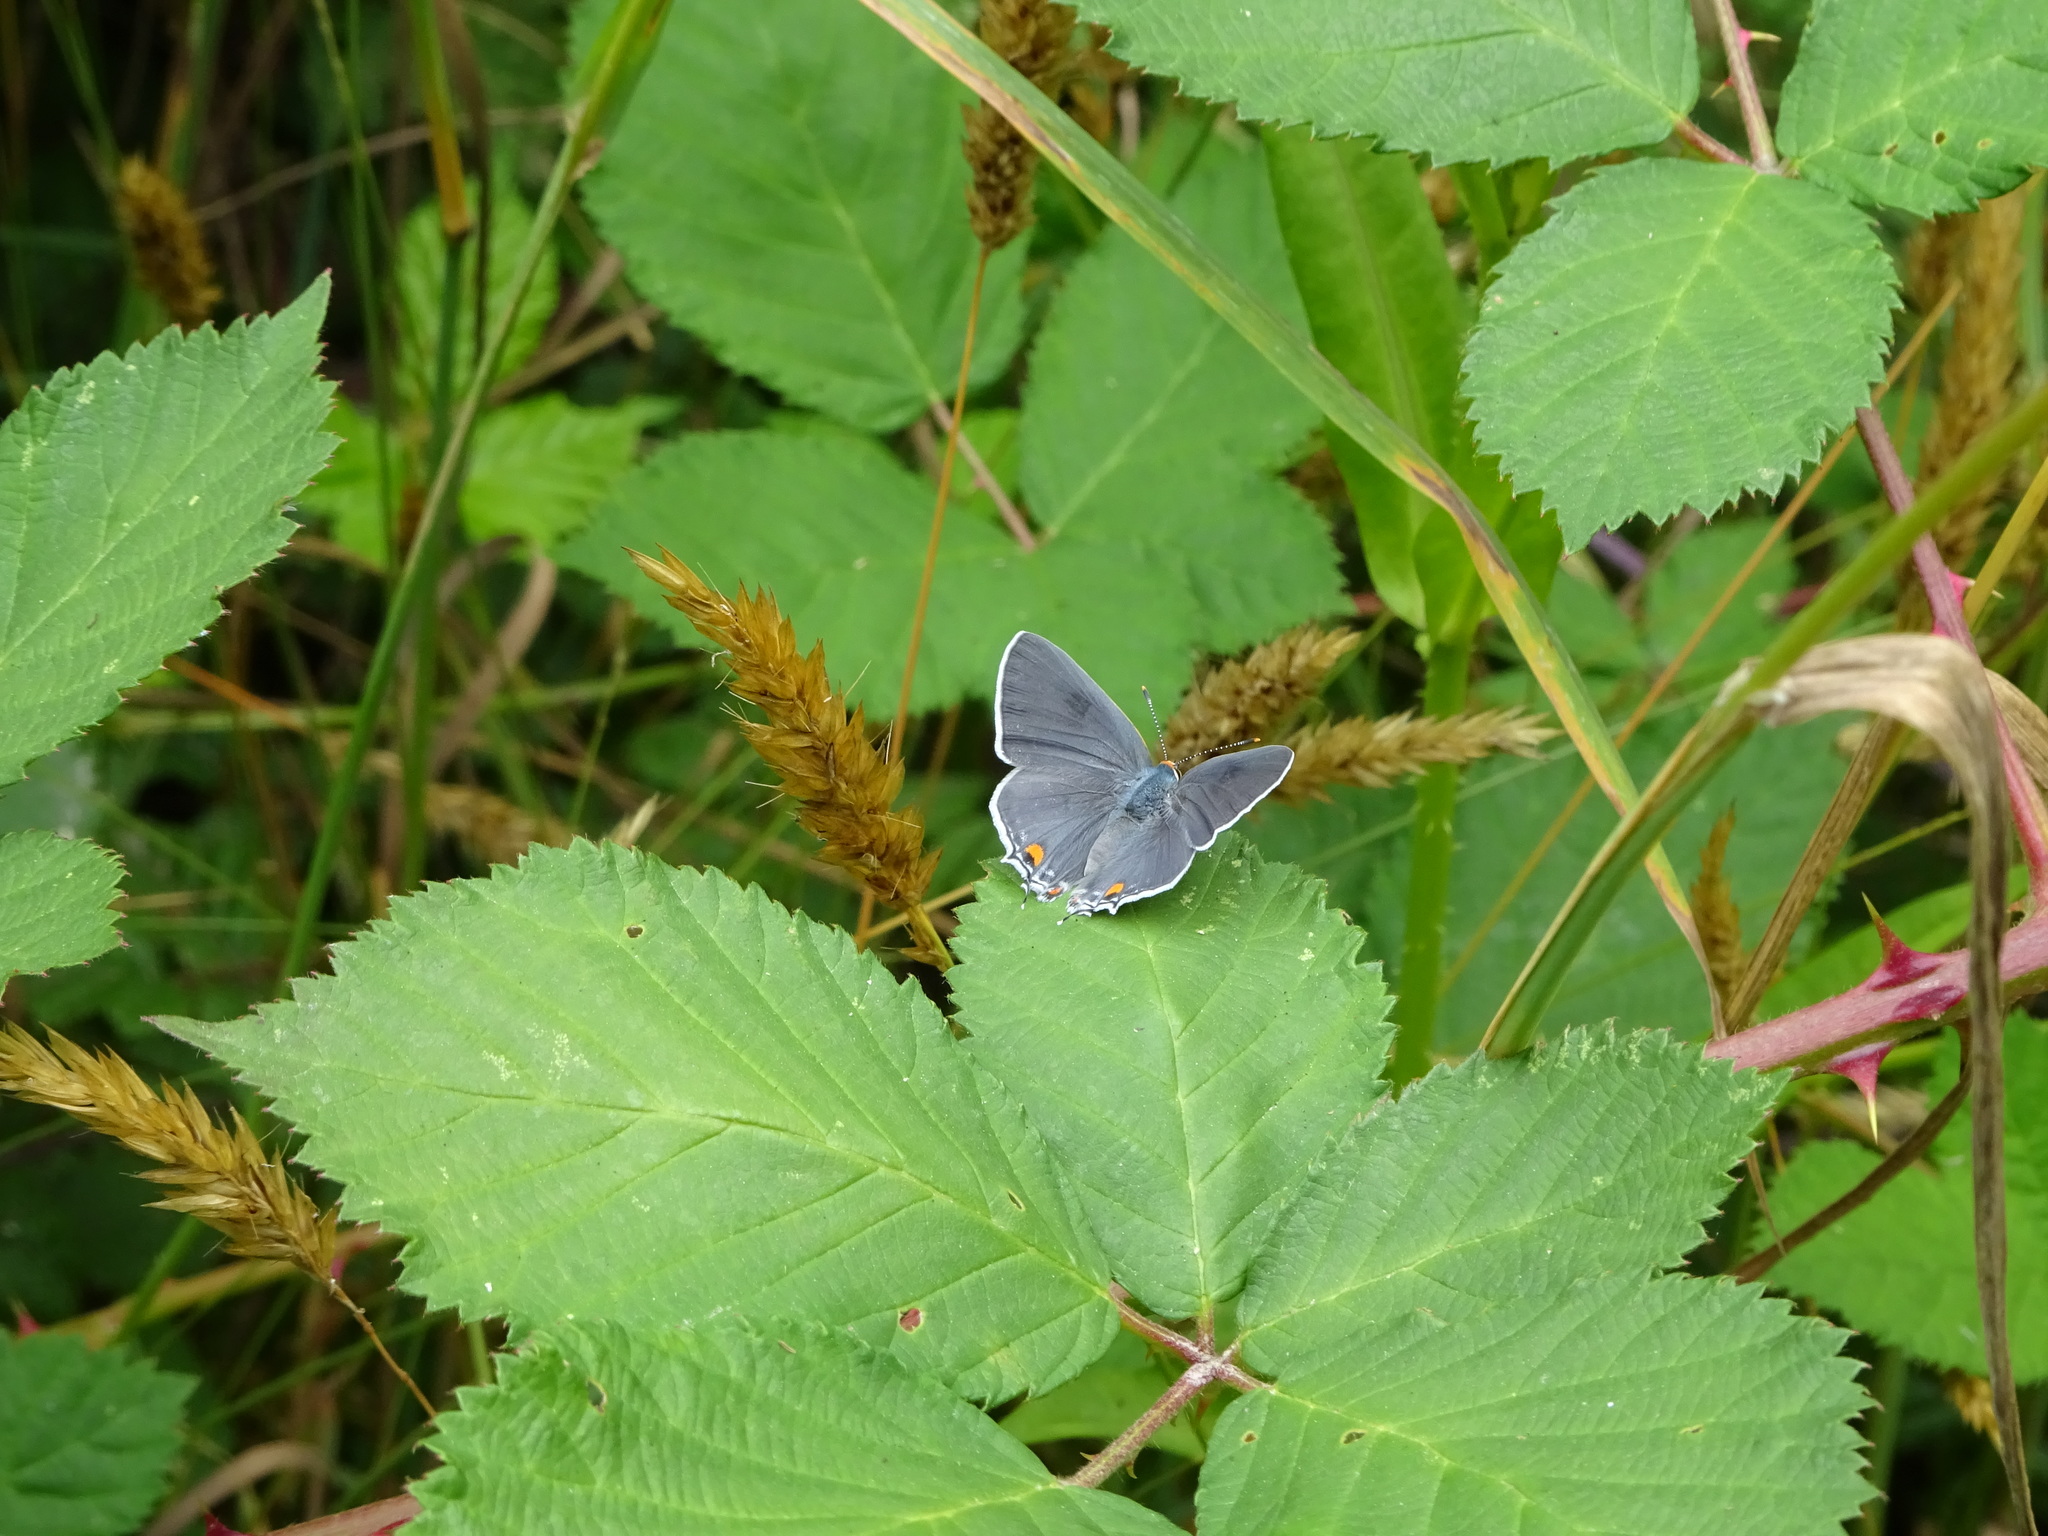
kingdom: Animalia
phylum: Arthropoda
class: Insecta
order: Lepidoptera
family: Lycaenidae
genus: Strymon
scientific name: Strymon melinus
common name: Gray hairstreak
